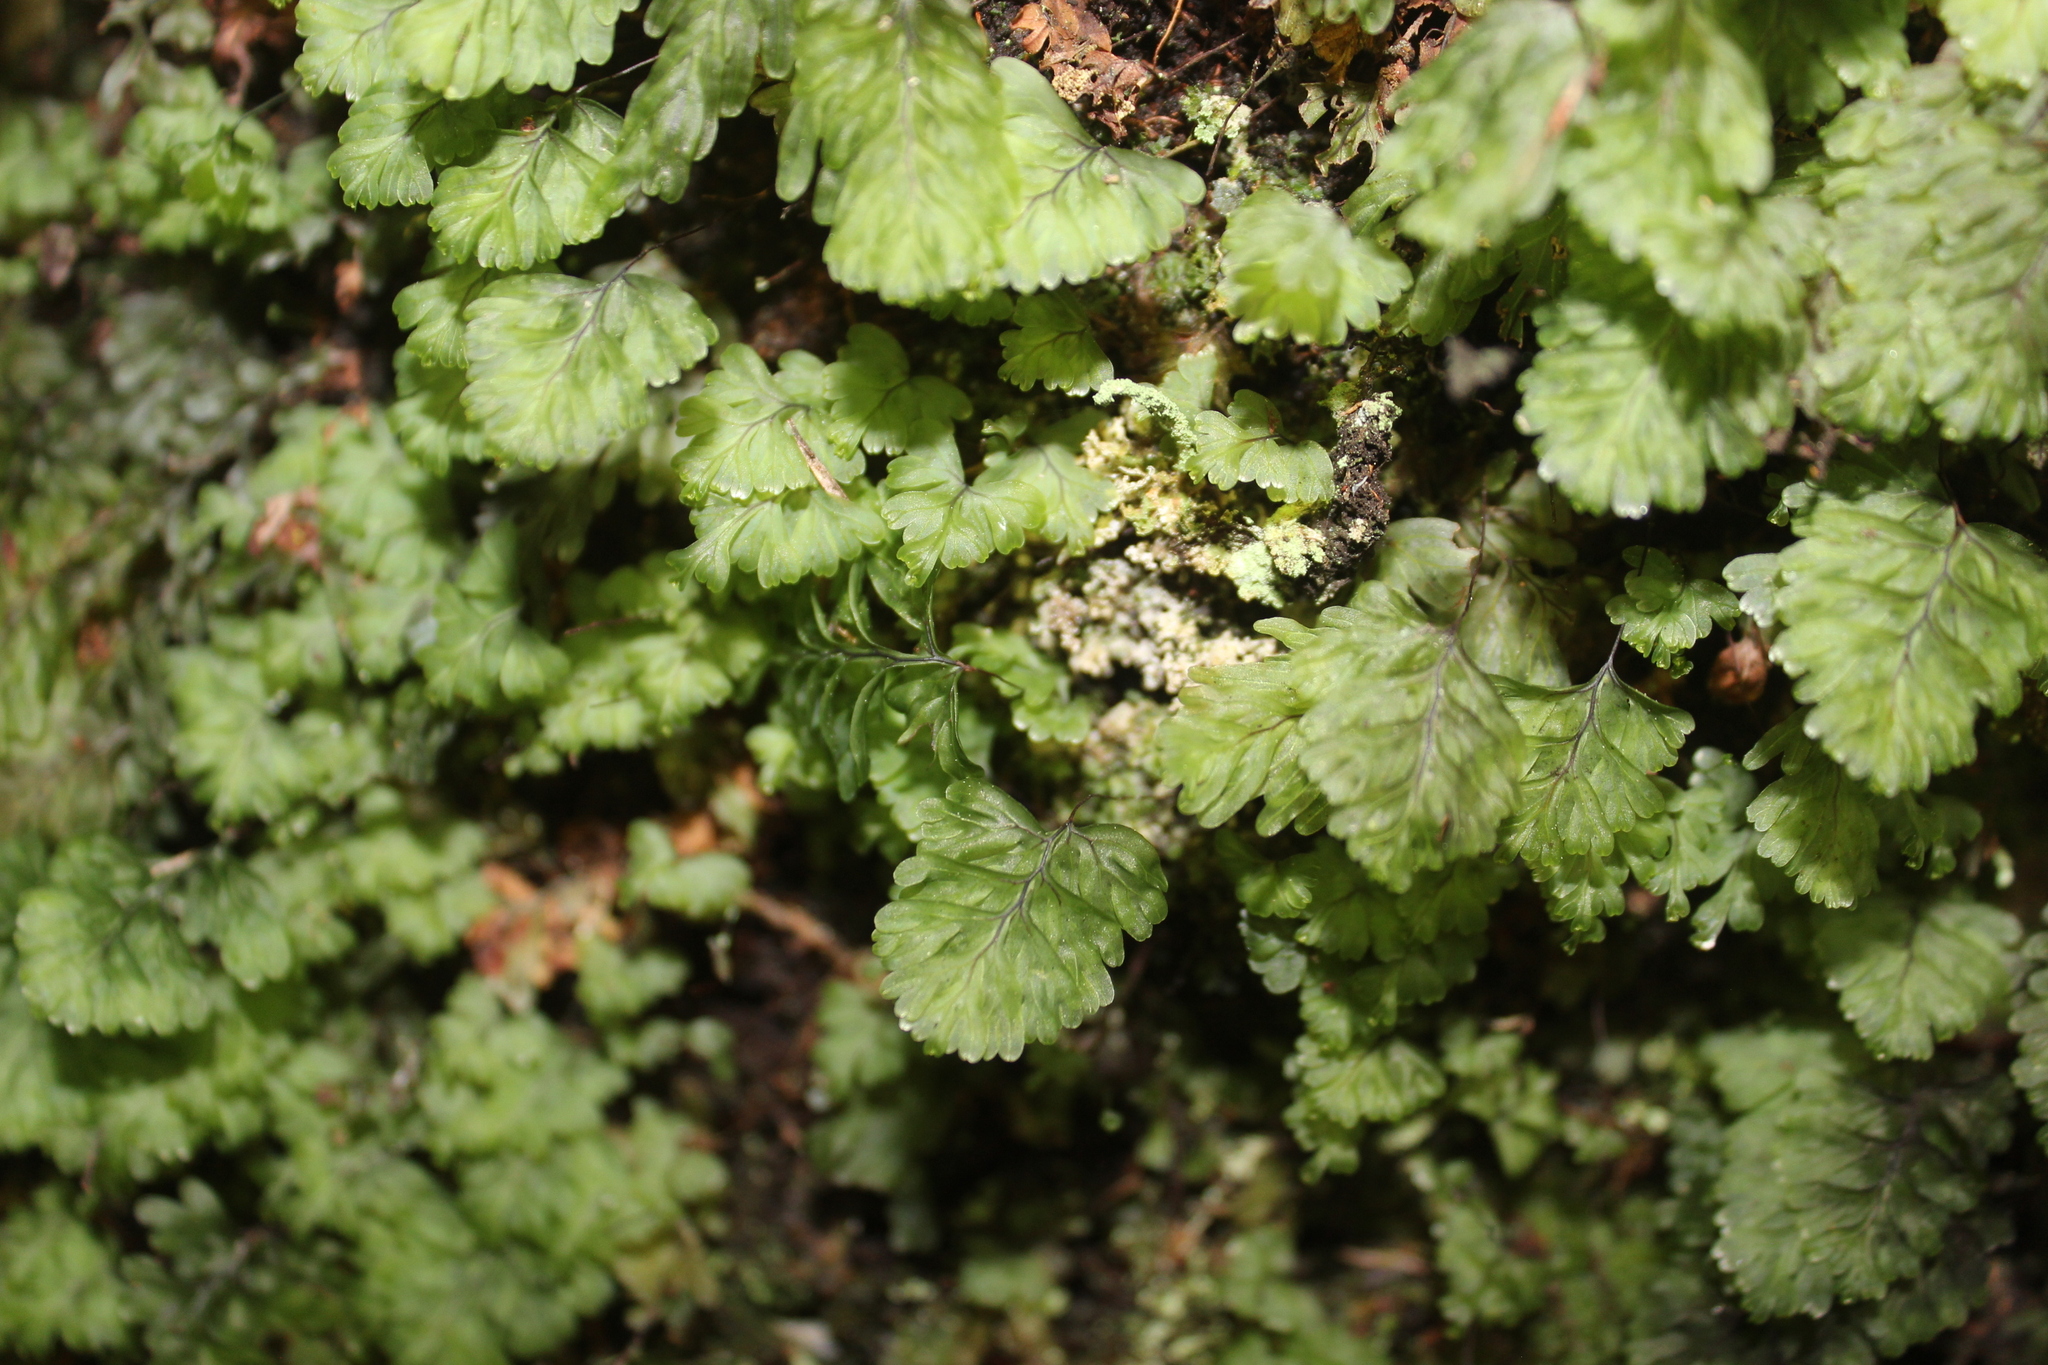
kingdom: Plantae
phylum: Tracheophyta
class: Polypodiopsida
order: Hymenophyllales
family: Hymenophyllaceae
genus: Hymenophyllum
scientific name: Hymenophyllum rarum
